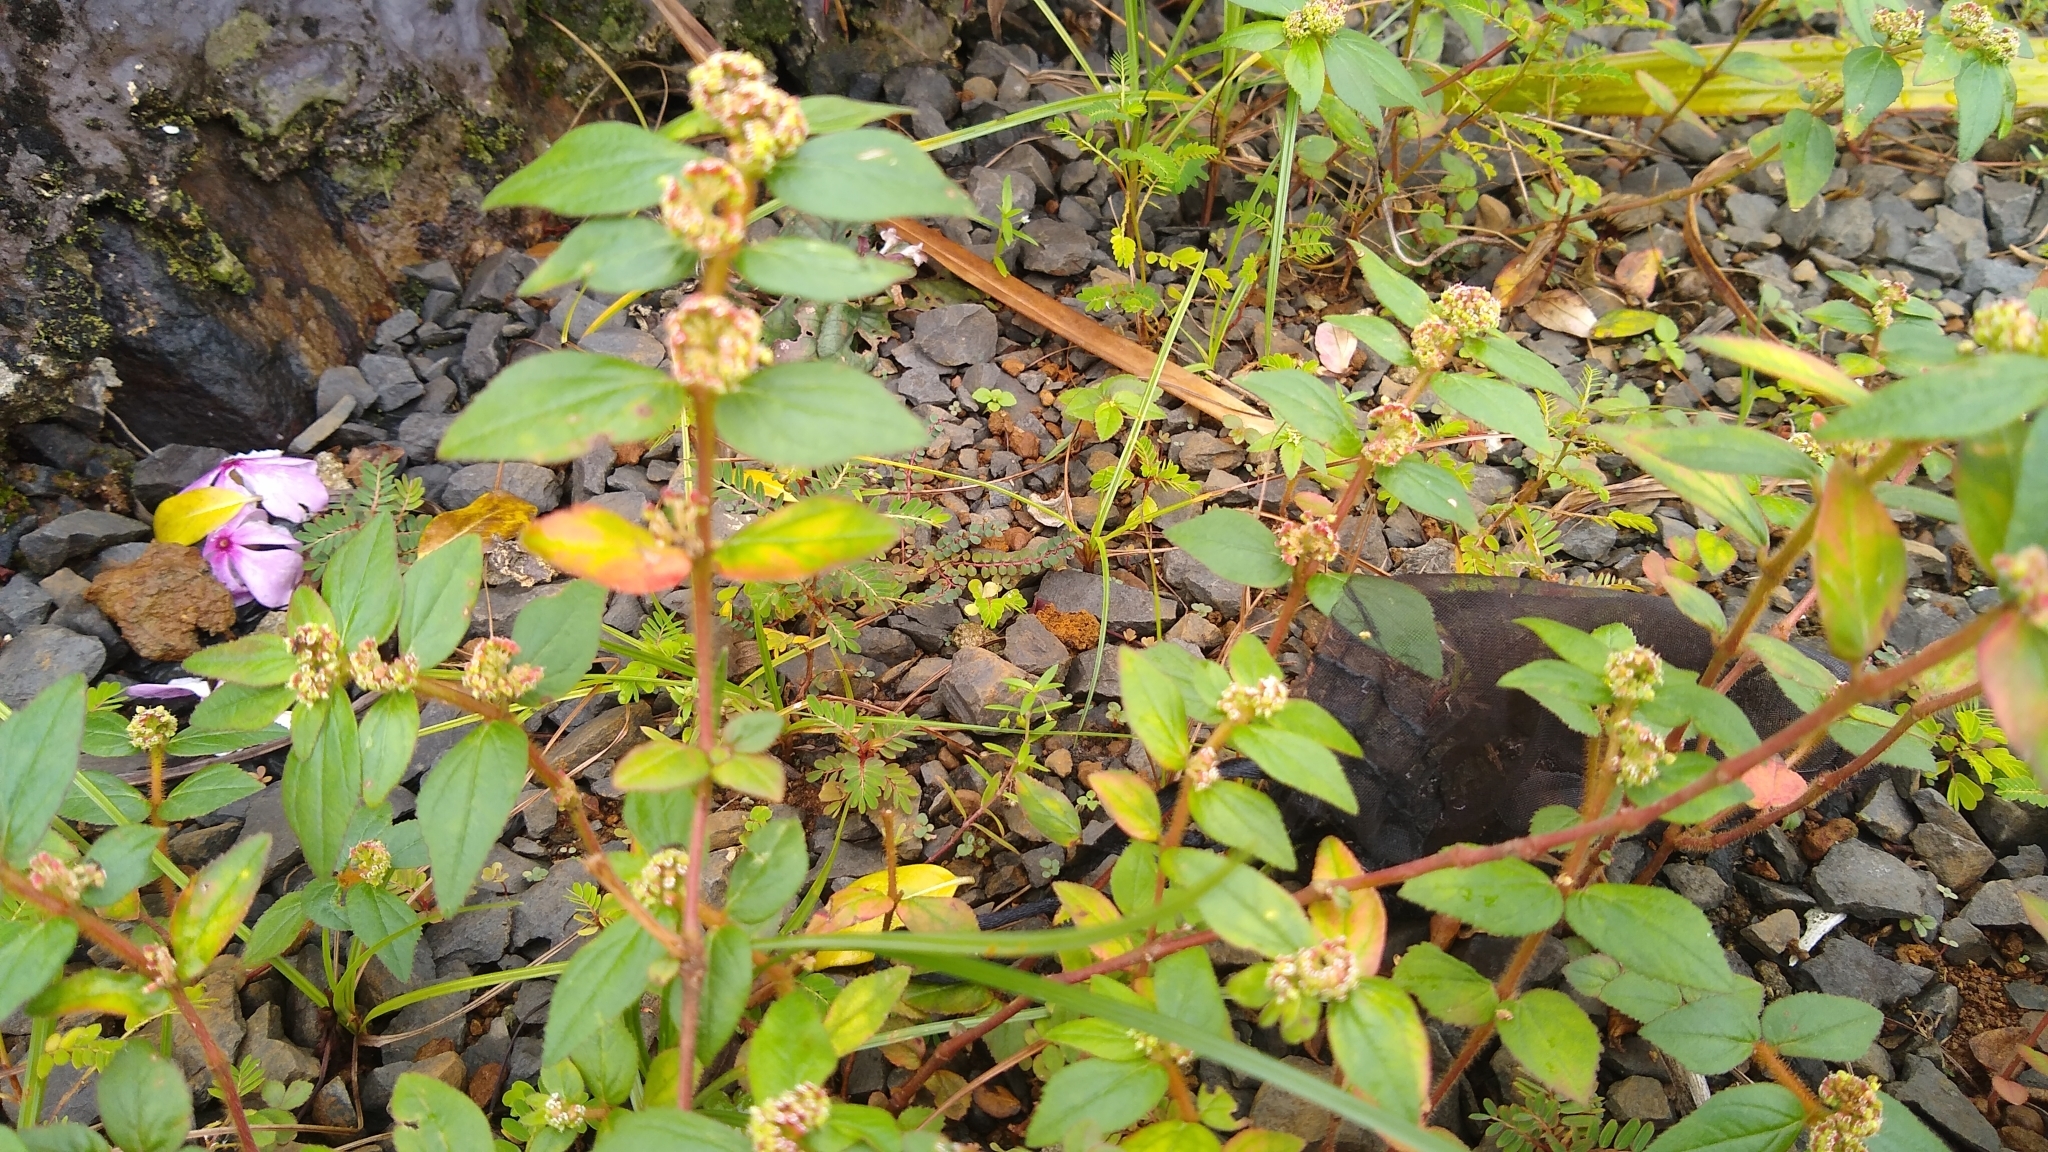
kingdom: Plantae
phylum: Tracheophyta
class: Magnoliopsida
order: Malpighiales
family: Euphorbiaceae
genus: Euphorbia
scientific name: Euphorbia hirta
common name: Pillpod sandmat
